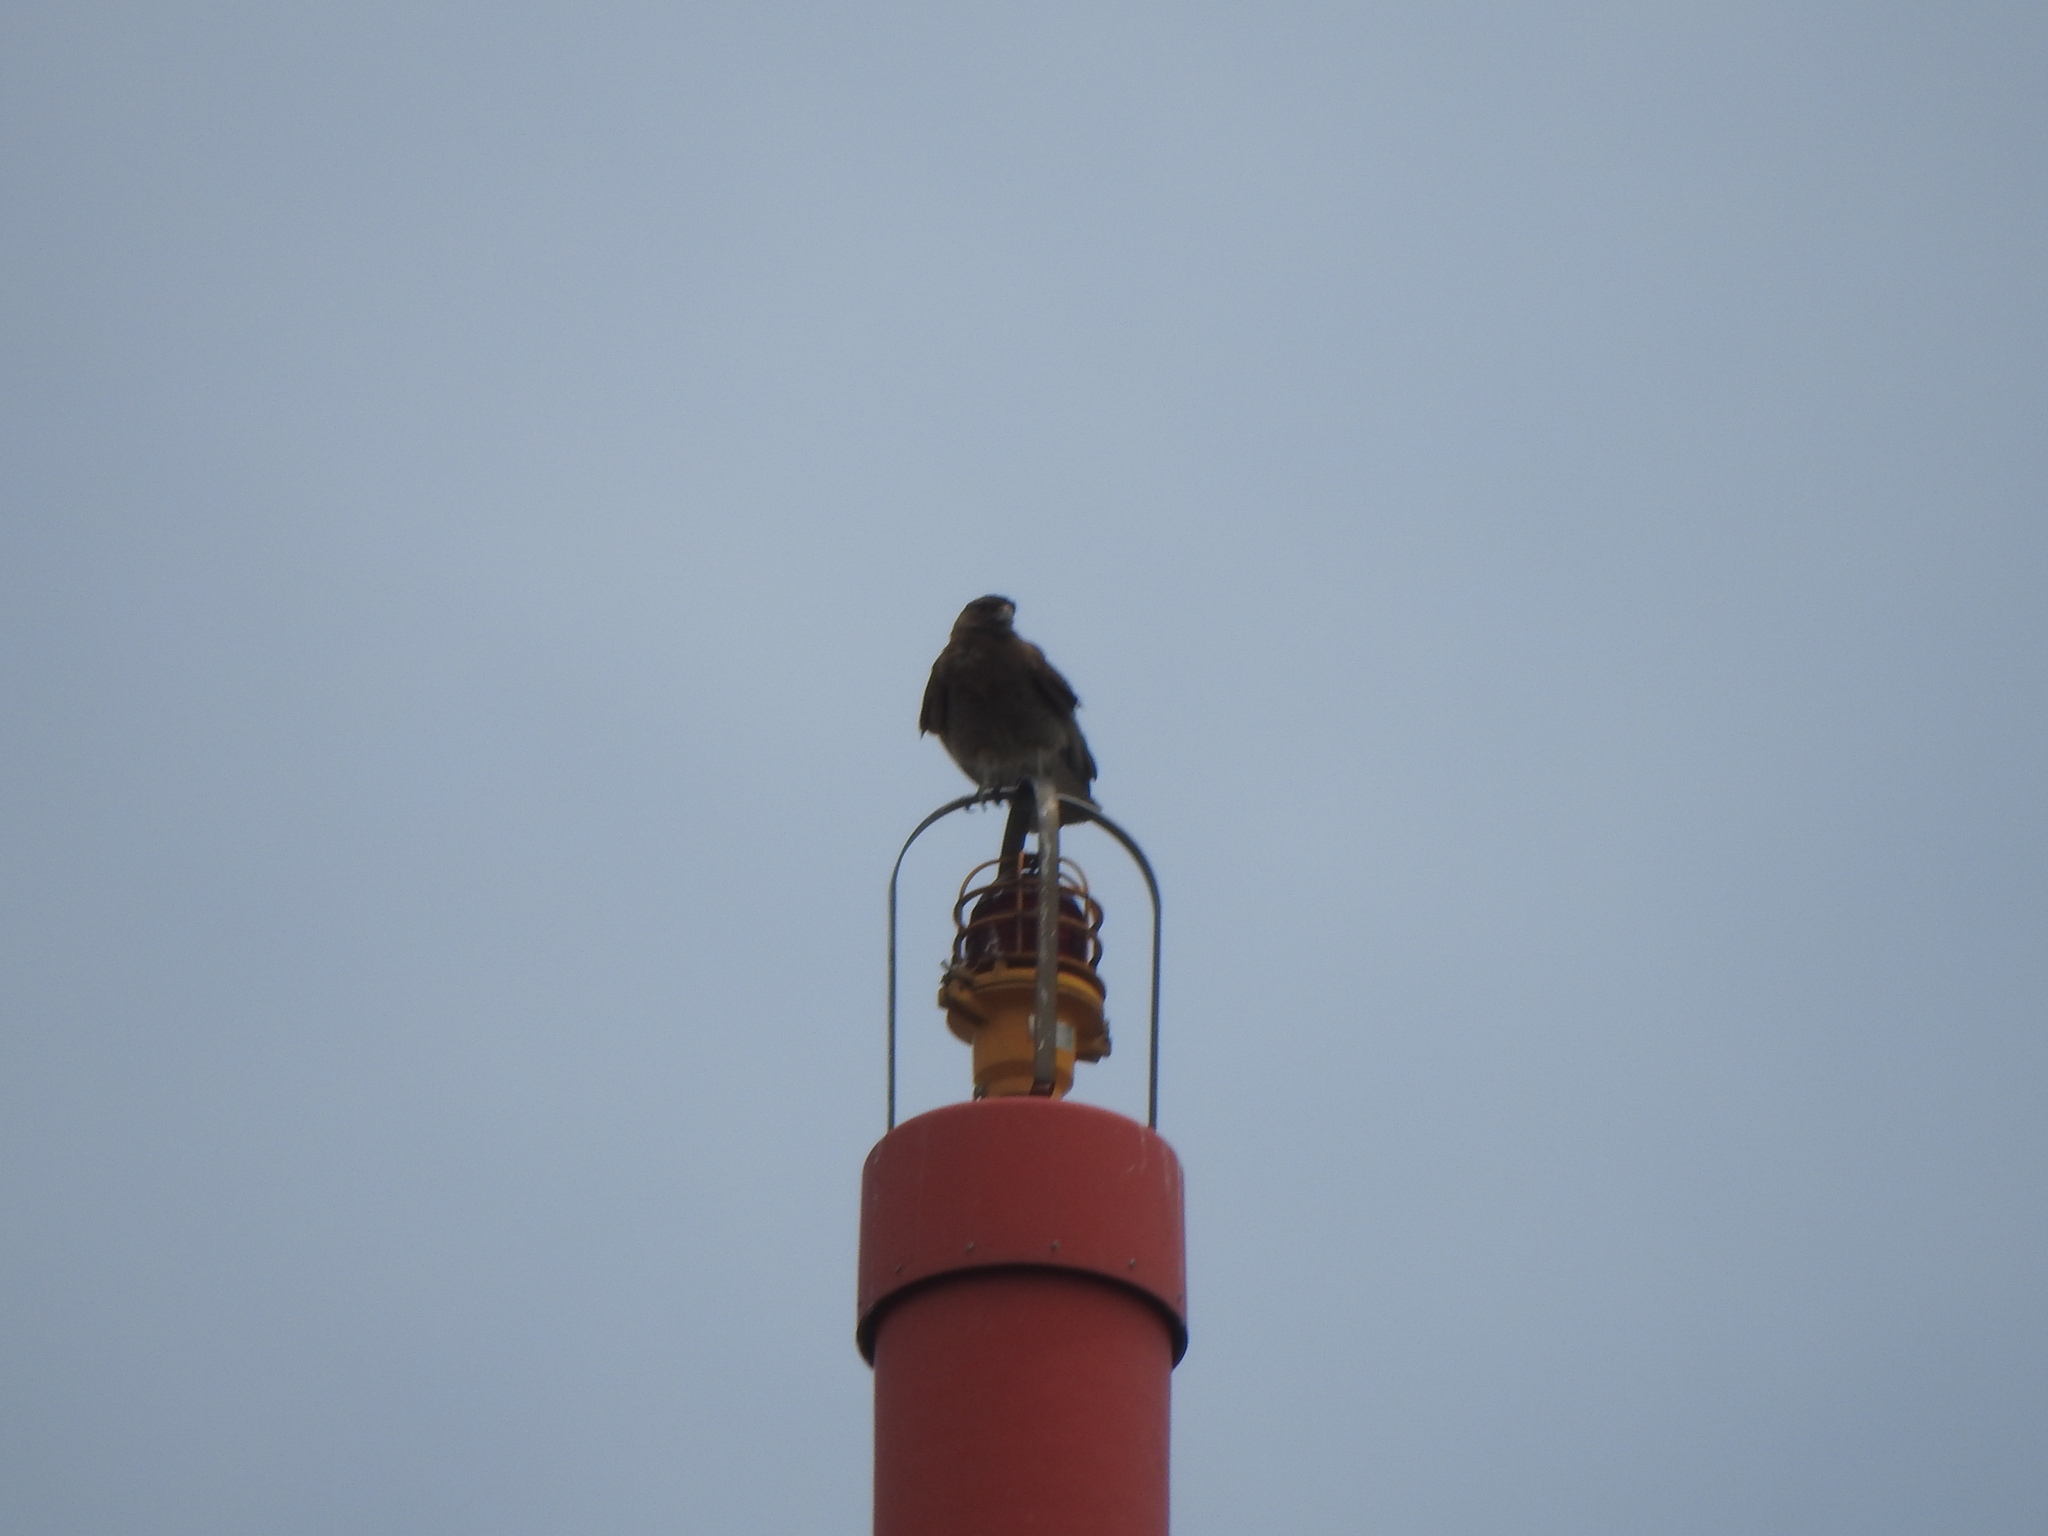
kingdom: Animalia
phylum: Chordata
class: Aves
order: Falconiformes
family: Falconidae
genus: Daptrius
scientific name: Daptrius
